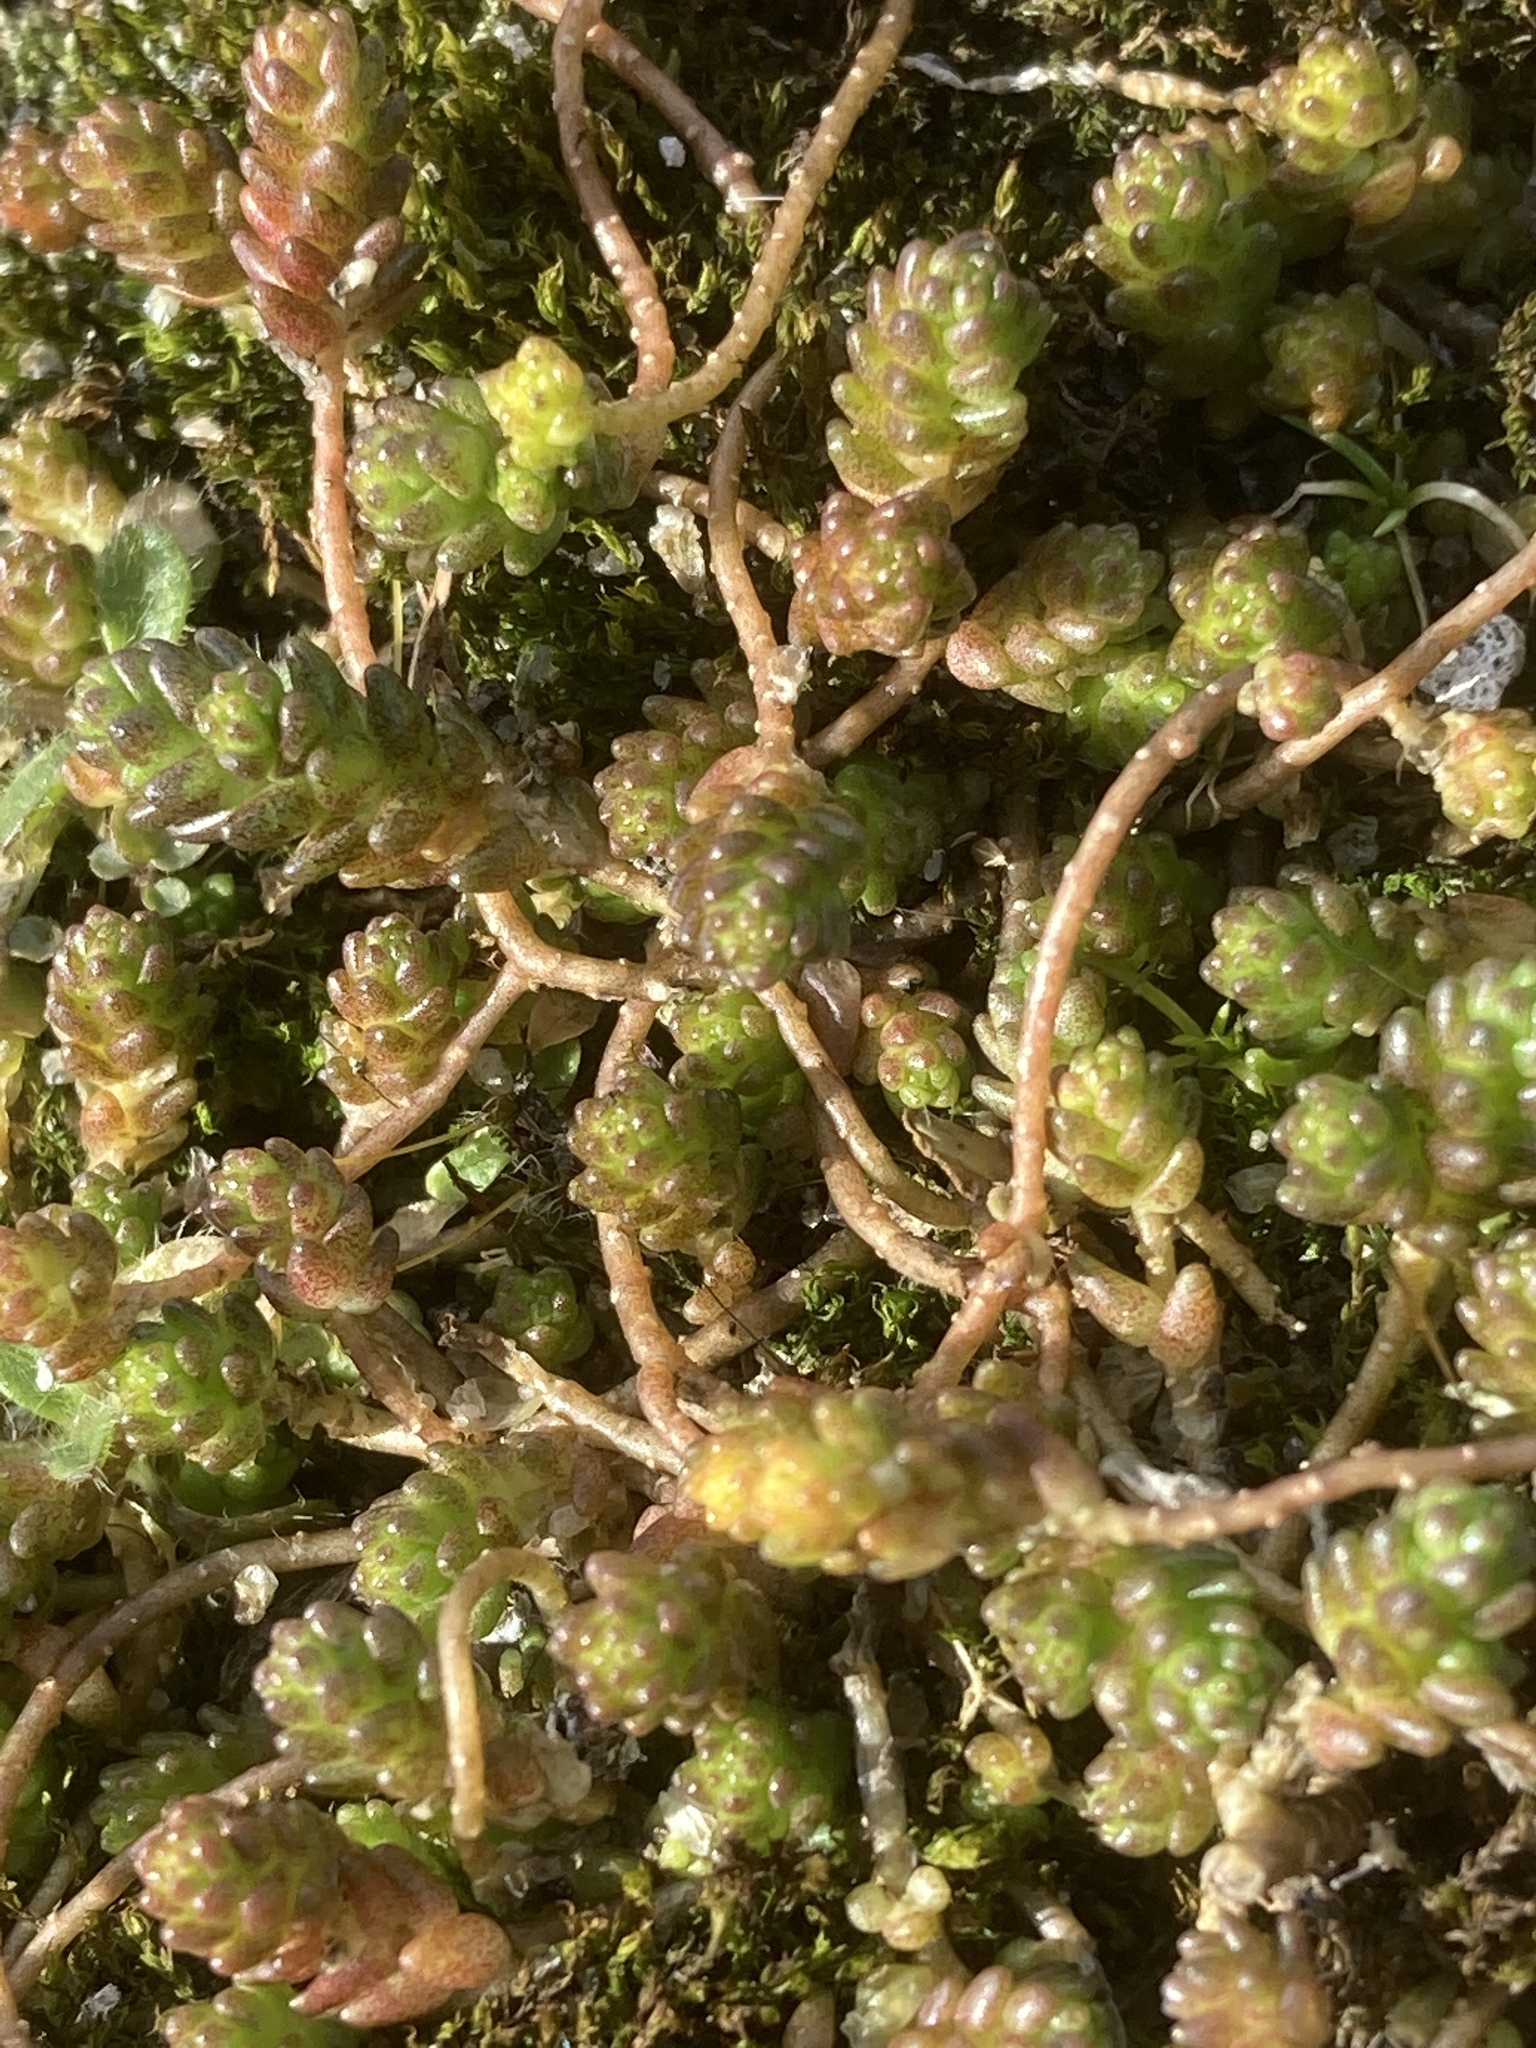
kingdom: Plantae
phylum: Tracheophyta
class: Magnoliopsida
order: Saxifragales
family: Crassulaceae
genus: Sedum
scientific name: Sedum acre
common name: Biting stonecrop
